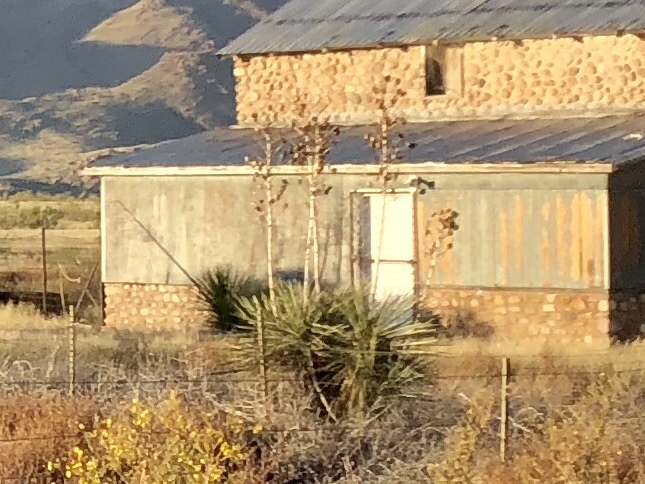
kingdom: Plantae
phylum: Tracheophyta
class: Liliopsida
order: Asparagales
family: Asparagaceae
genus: Yucca
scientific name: Yucca elata
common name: Palmella
